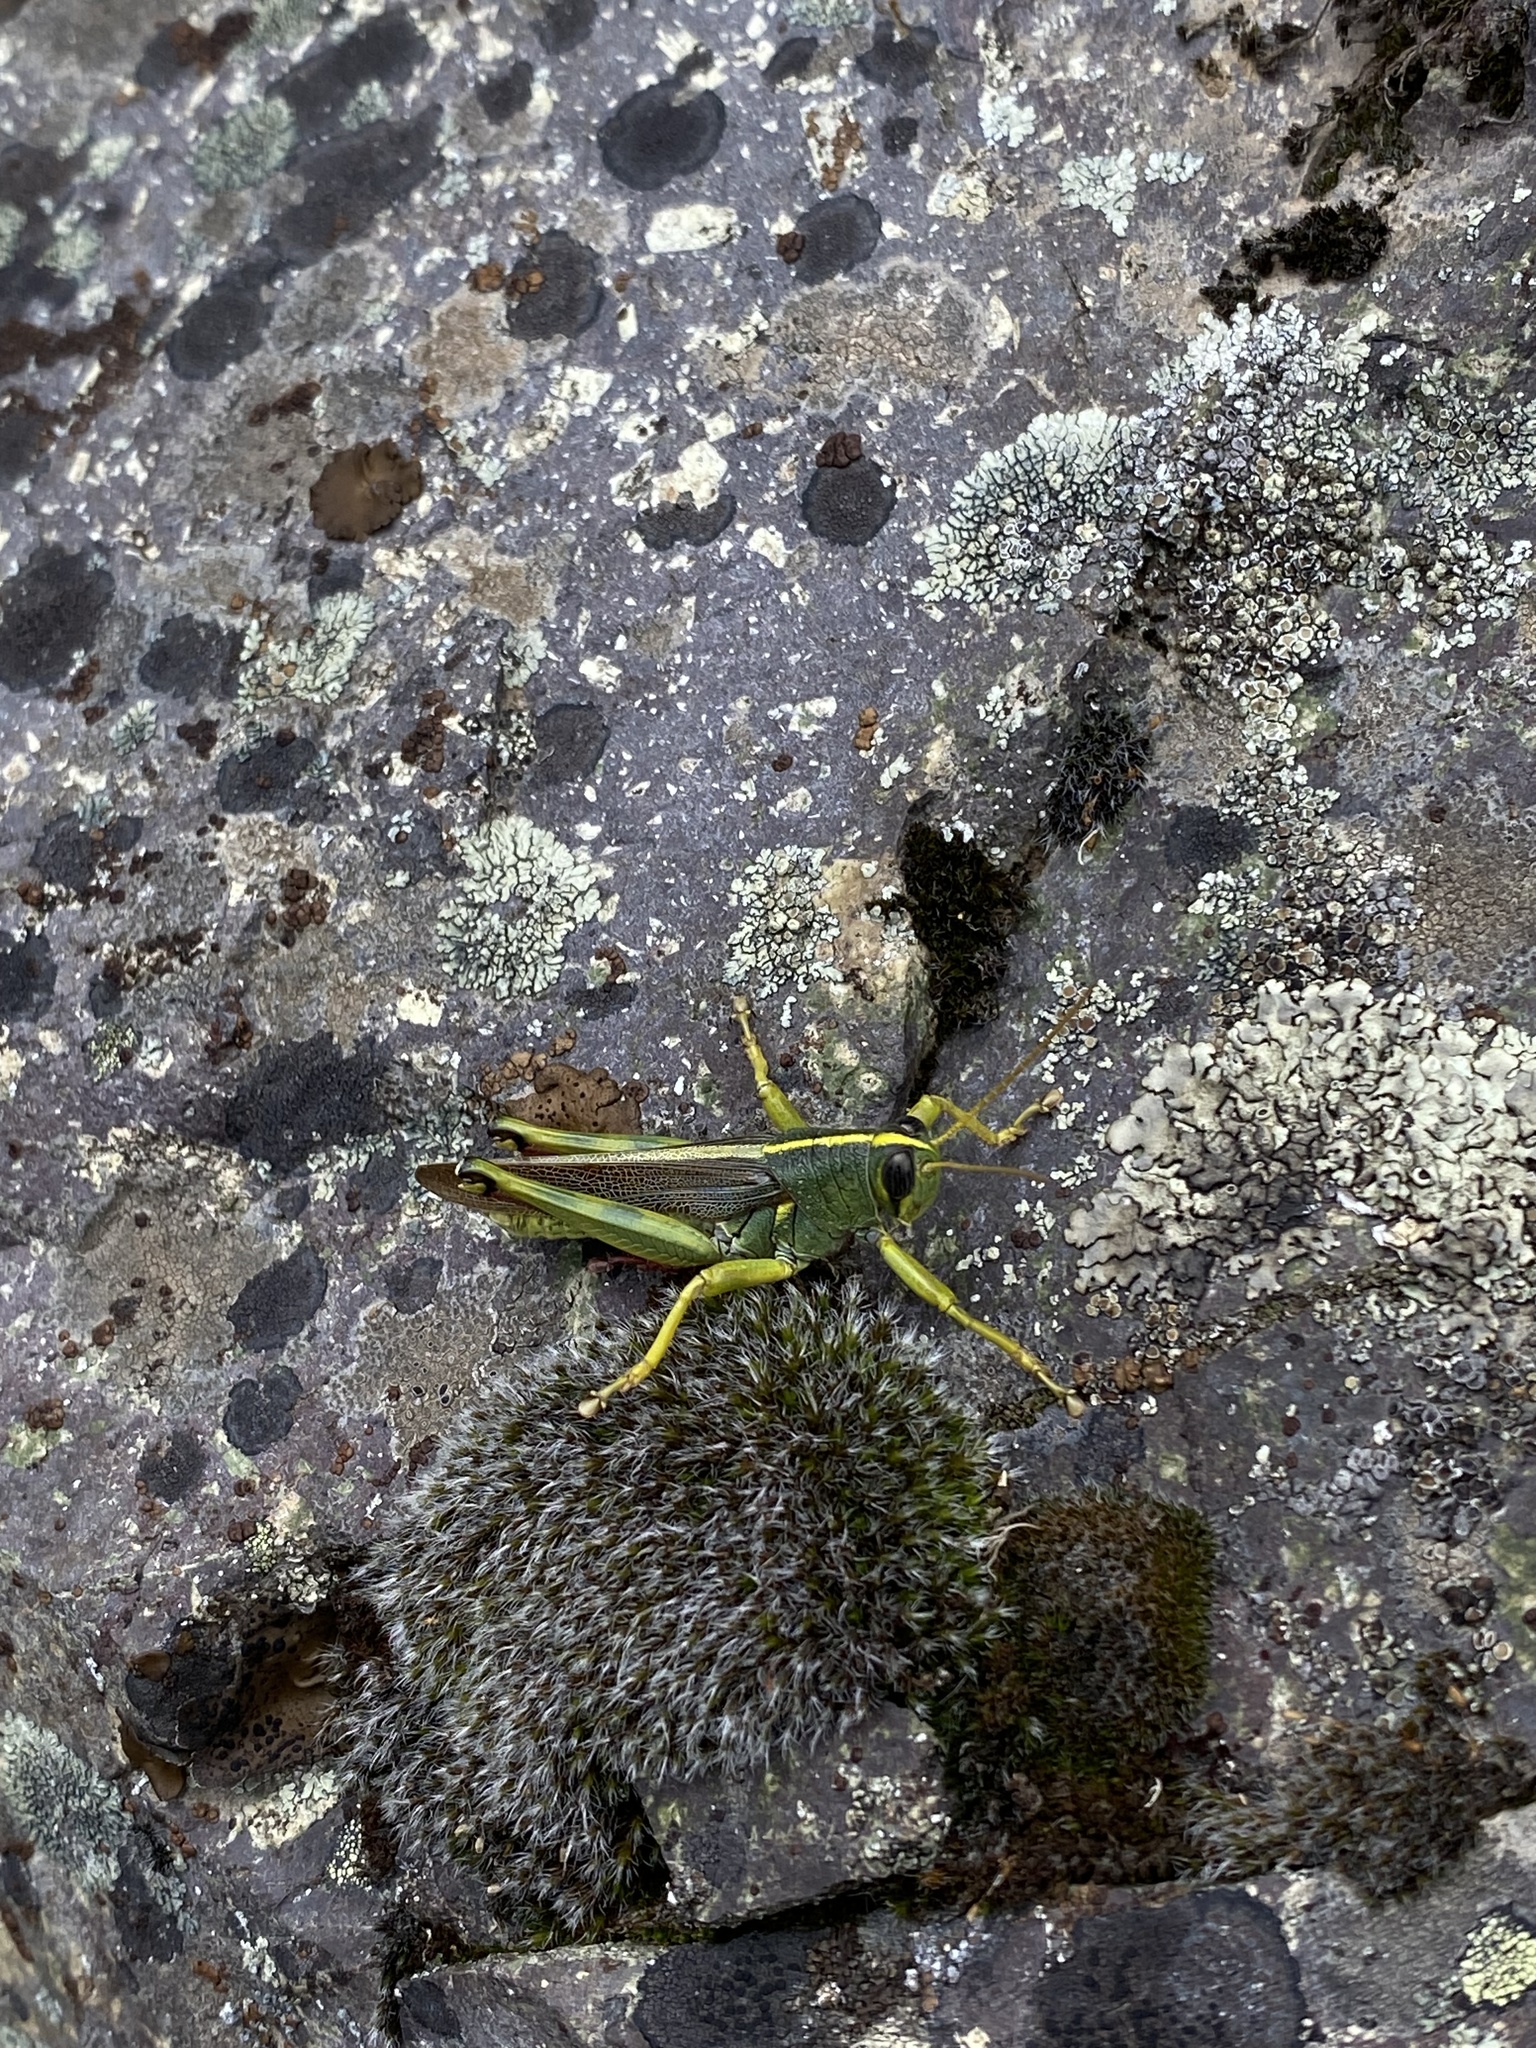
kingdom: Animalia
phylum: Arthropoda
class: Insecta
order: Orthoptera
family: Acrididae
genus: Schistocerca
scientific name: Schistocerca lineata
